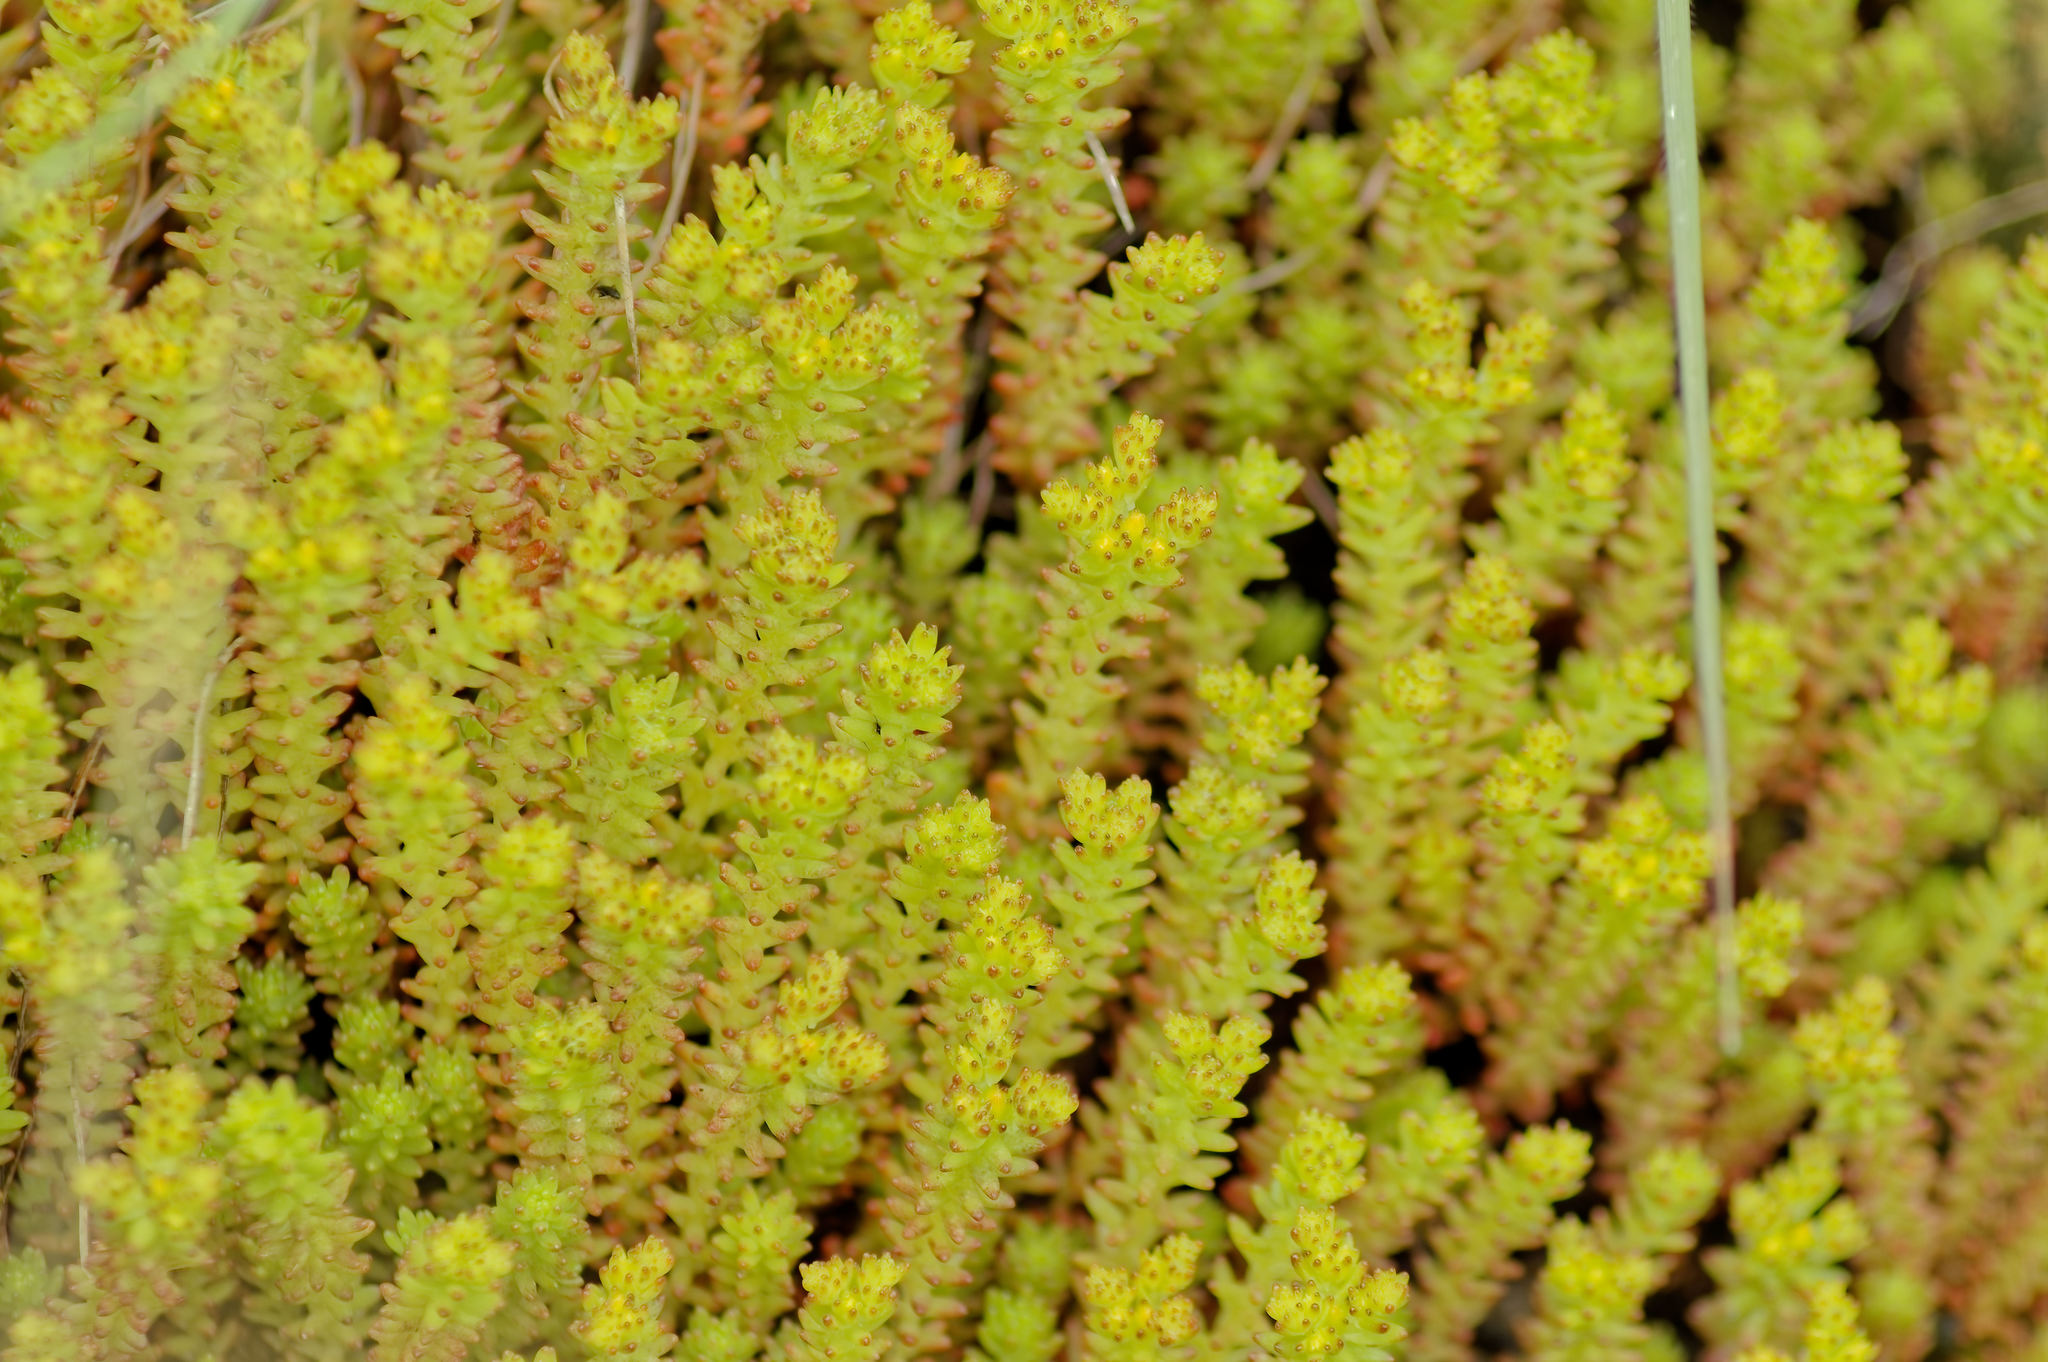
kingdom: Plantae
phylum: Tracheophyta
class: Magnoliopsida
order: Saxifragales
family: Crassulaceae
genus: Sedum
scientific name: Sedum sexangulare
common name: Tasteless stonecrop
